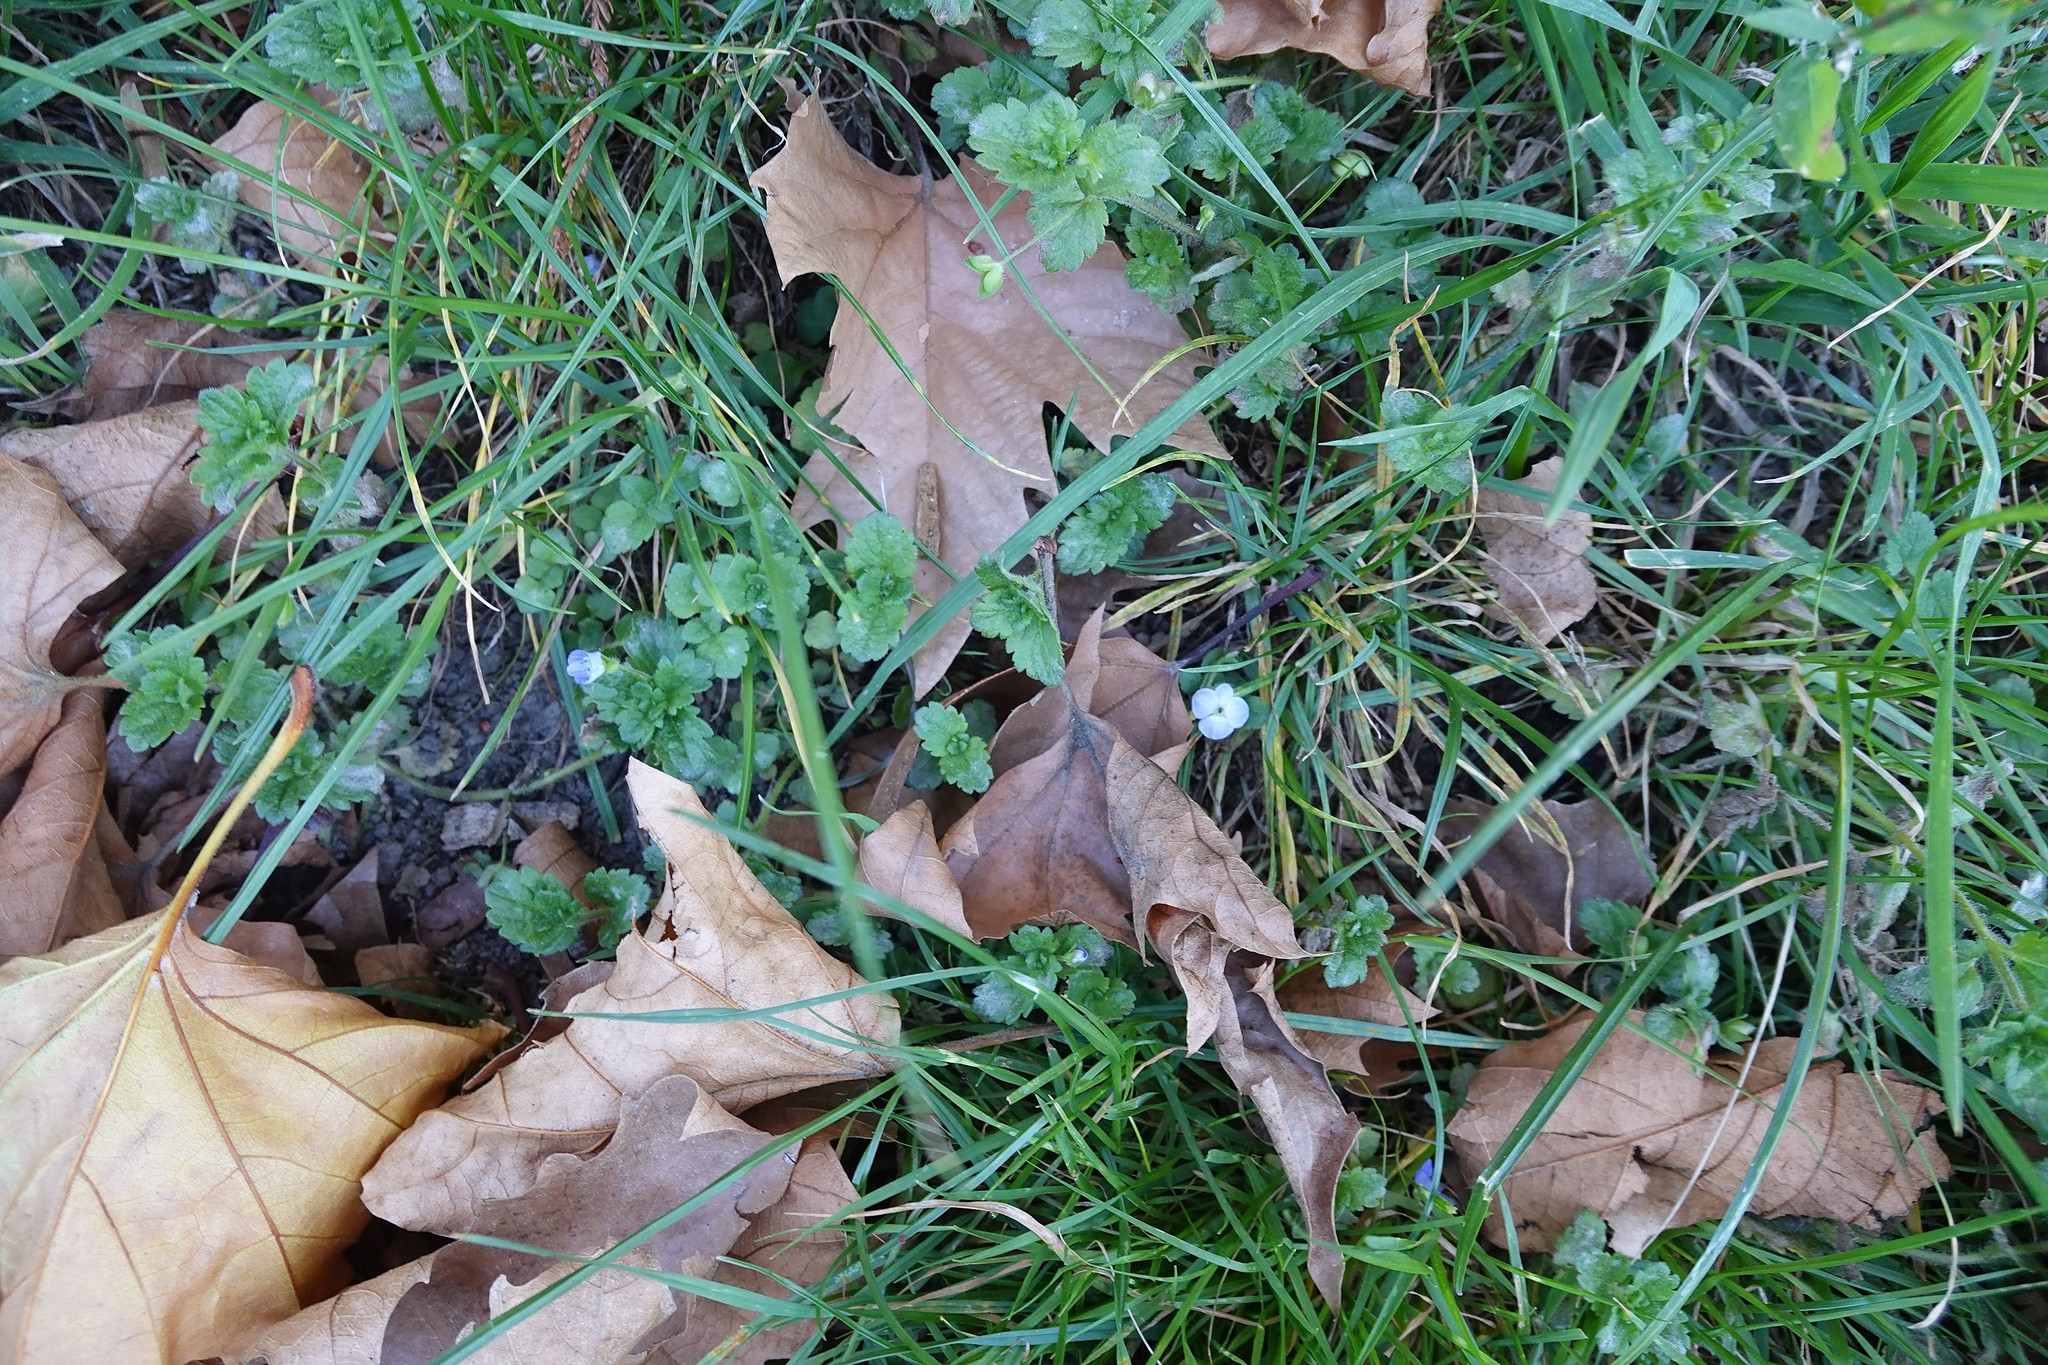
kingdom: Plantae
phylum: Tracheophyta
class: Magnoliopsida
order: Lamiales
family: Plantaginaceae
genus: Veronica
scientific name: Veronica persica
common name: Common field-speedwell
